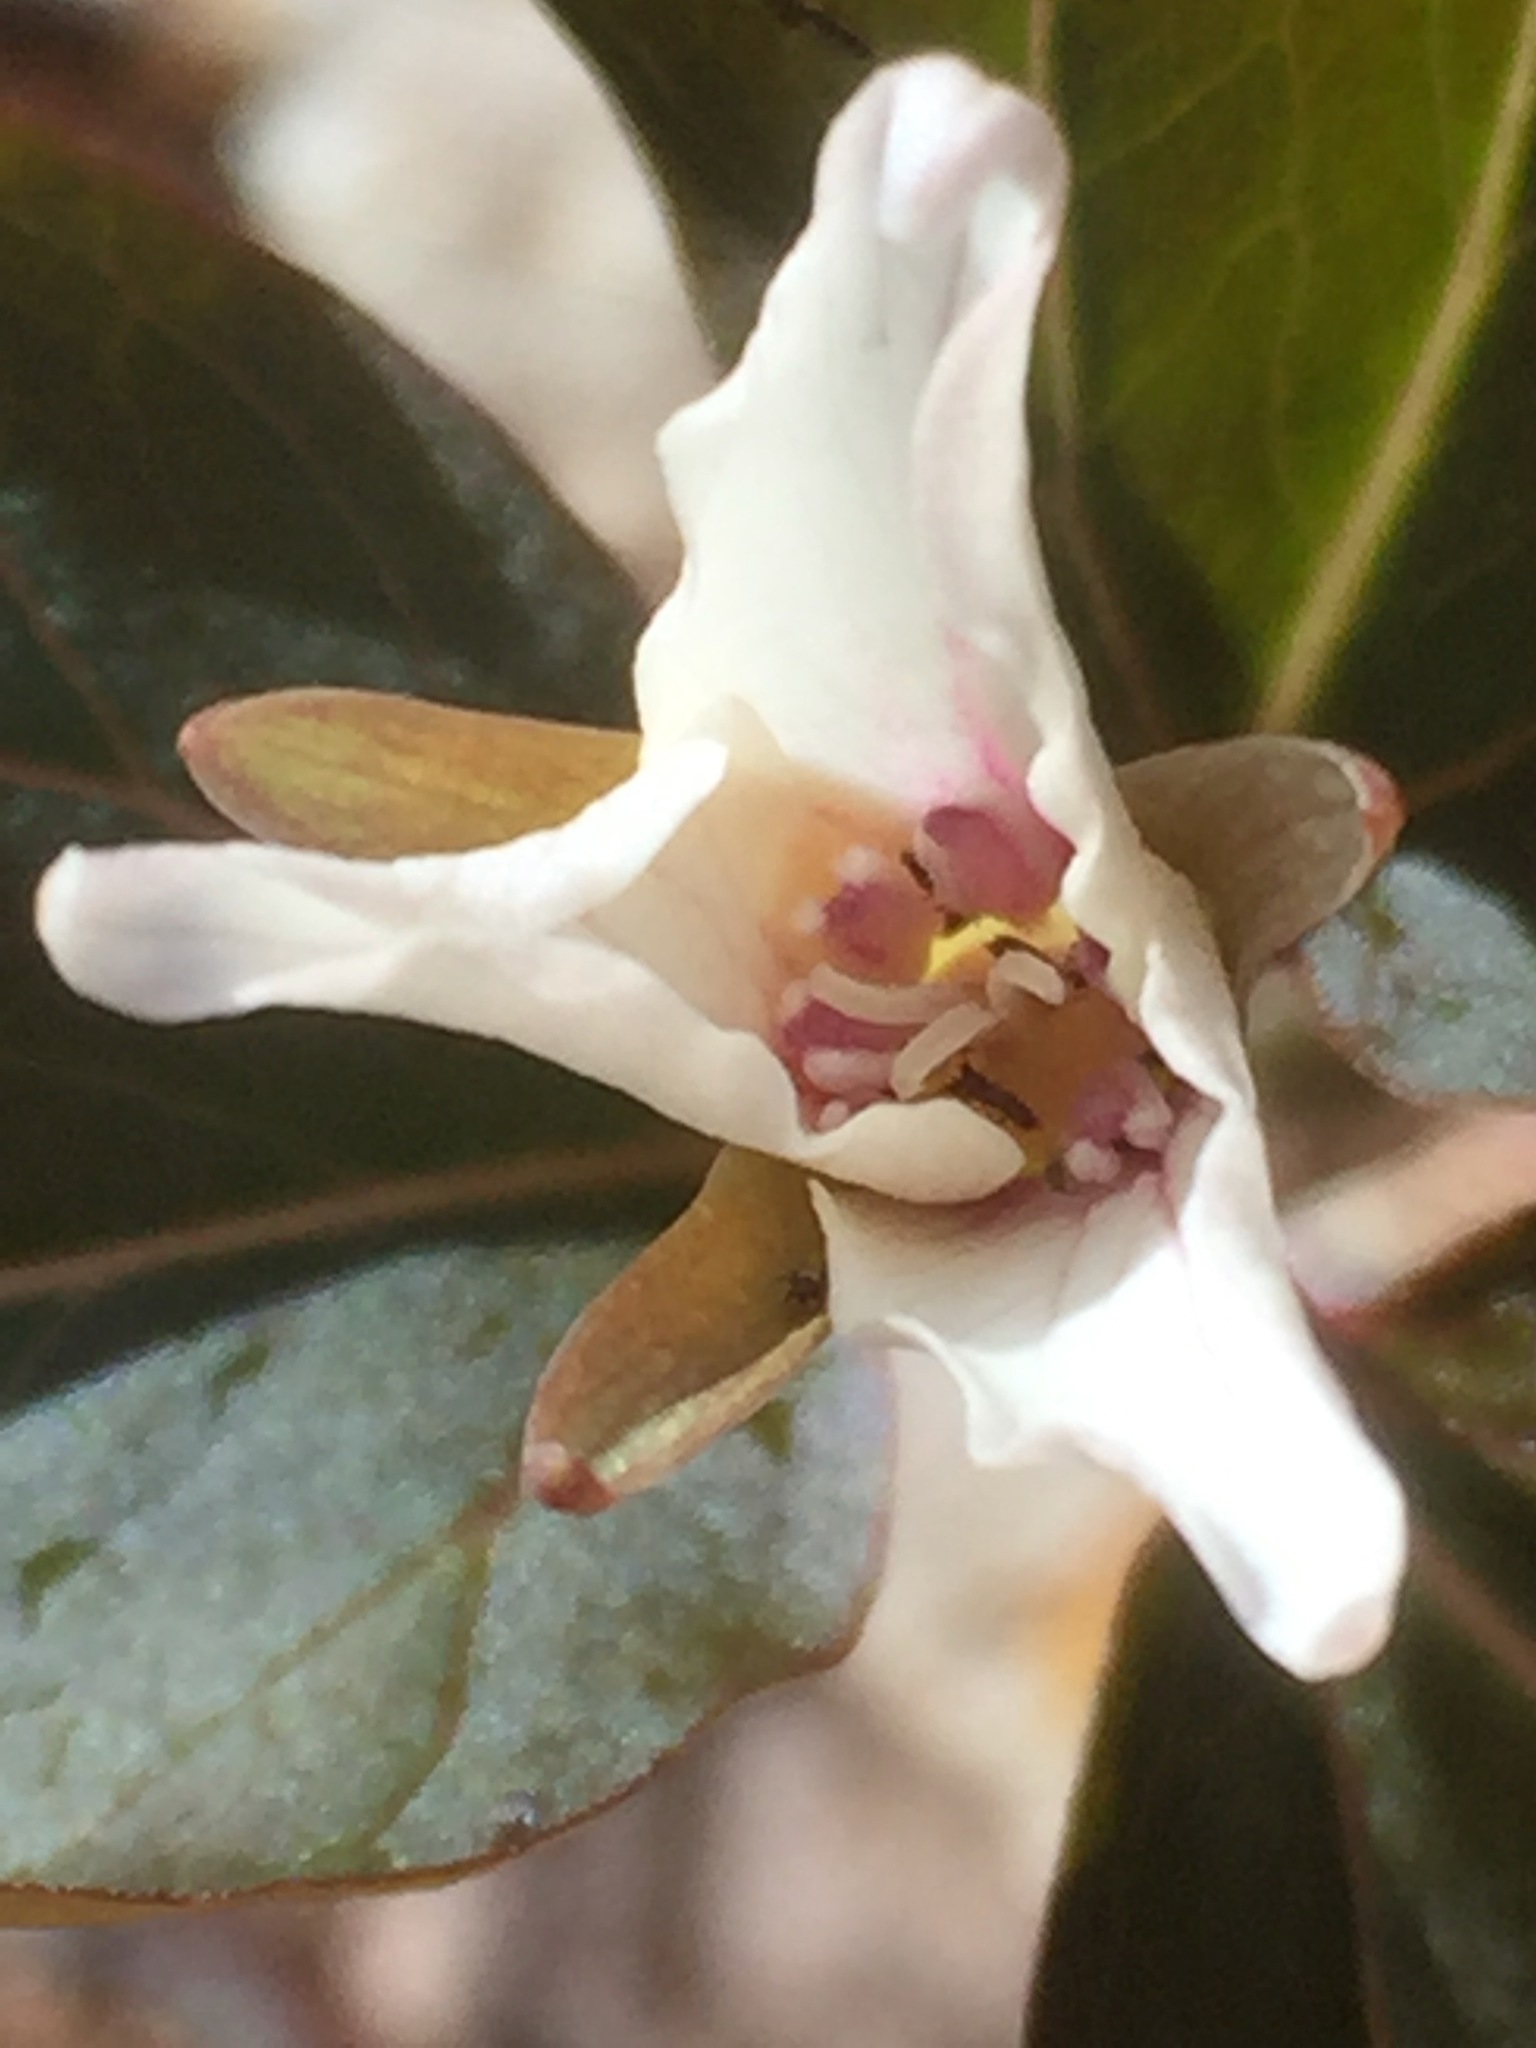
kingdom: Plantae
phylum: Tracheophyta
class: Liliopsida
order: Liliales
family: Melanthiaceae
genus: Trillium
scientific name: Trillium undulatum
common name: Paint trillium
